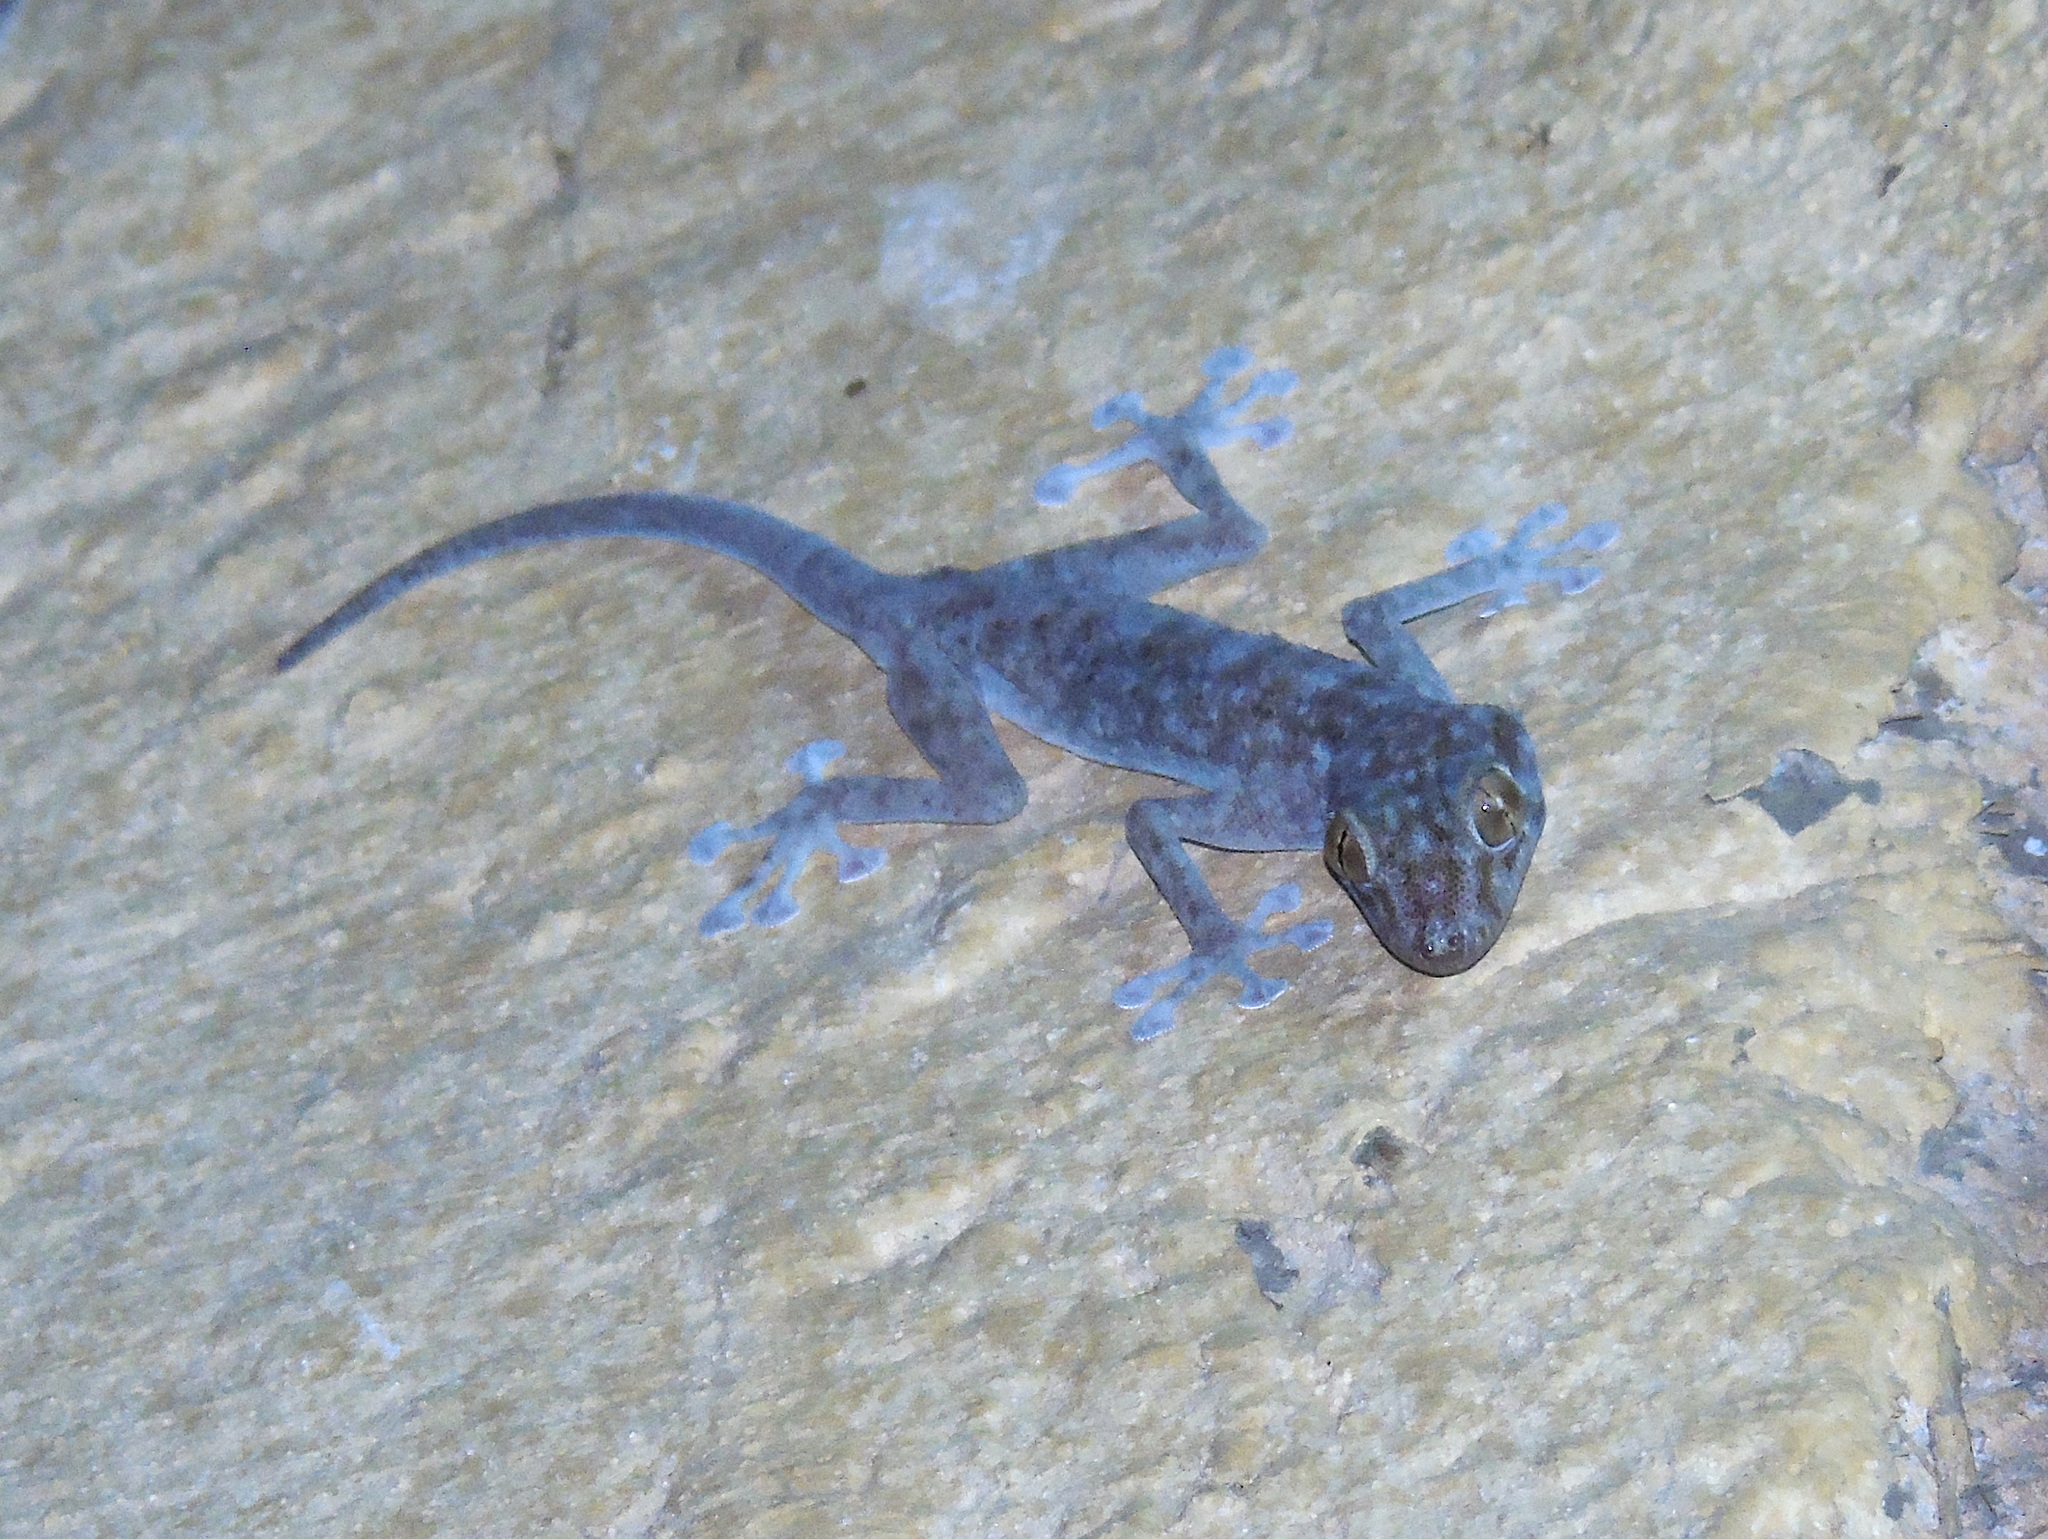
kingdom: Animalia
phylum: Chordata
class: Squamata
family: Phyllodactylidae
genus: Ptyodactylus
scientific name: Ptyodactylus hasselquistii
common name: Hasselquist’s fan-footed gecko
